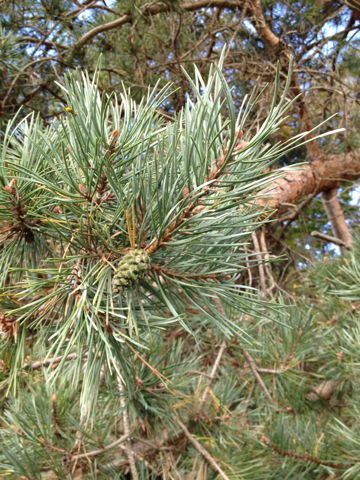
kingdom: Plantae
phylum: Tracheophyta
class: Pinopsida
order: Pinales
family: Pinaceae
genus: Pinus
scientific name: Pinus sylvestris
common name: Scots pine
